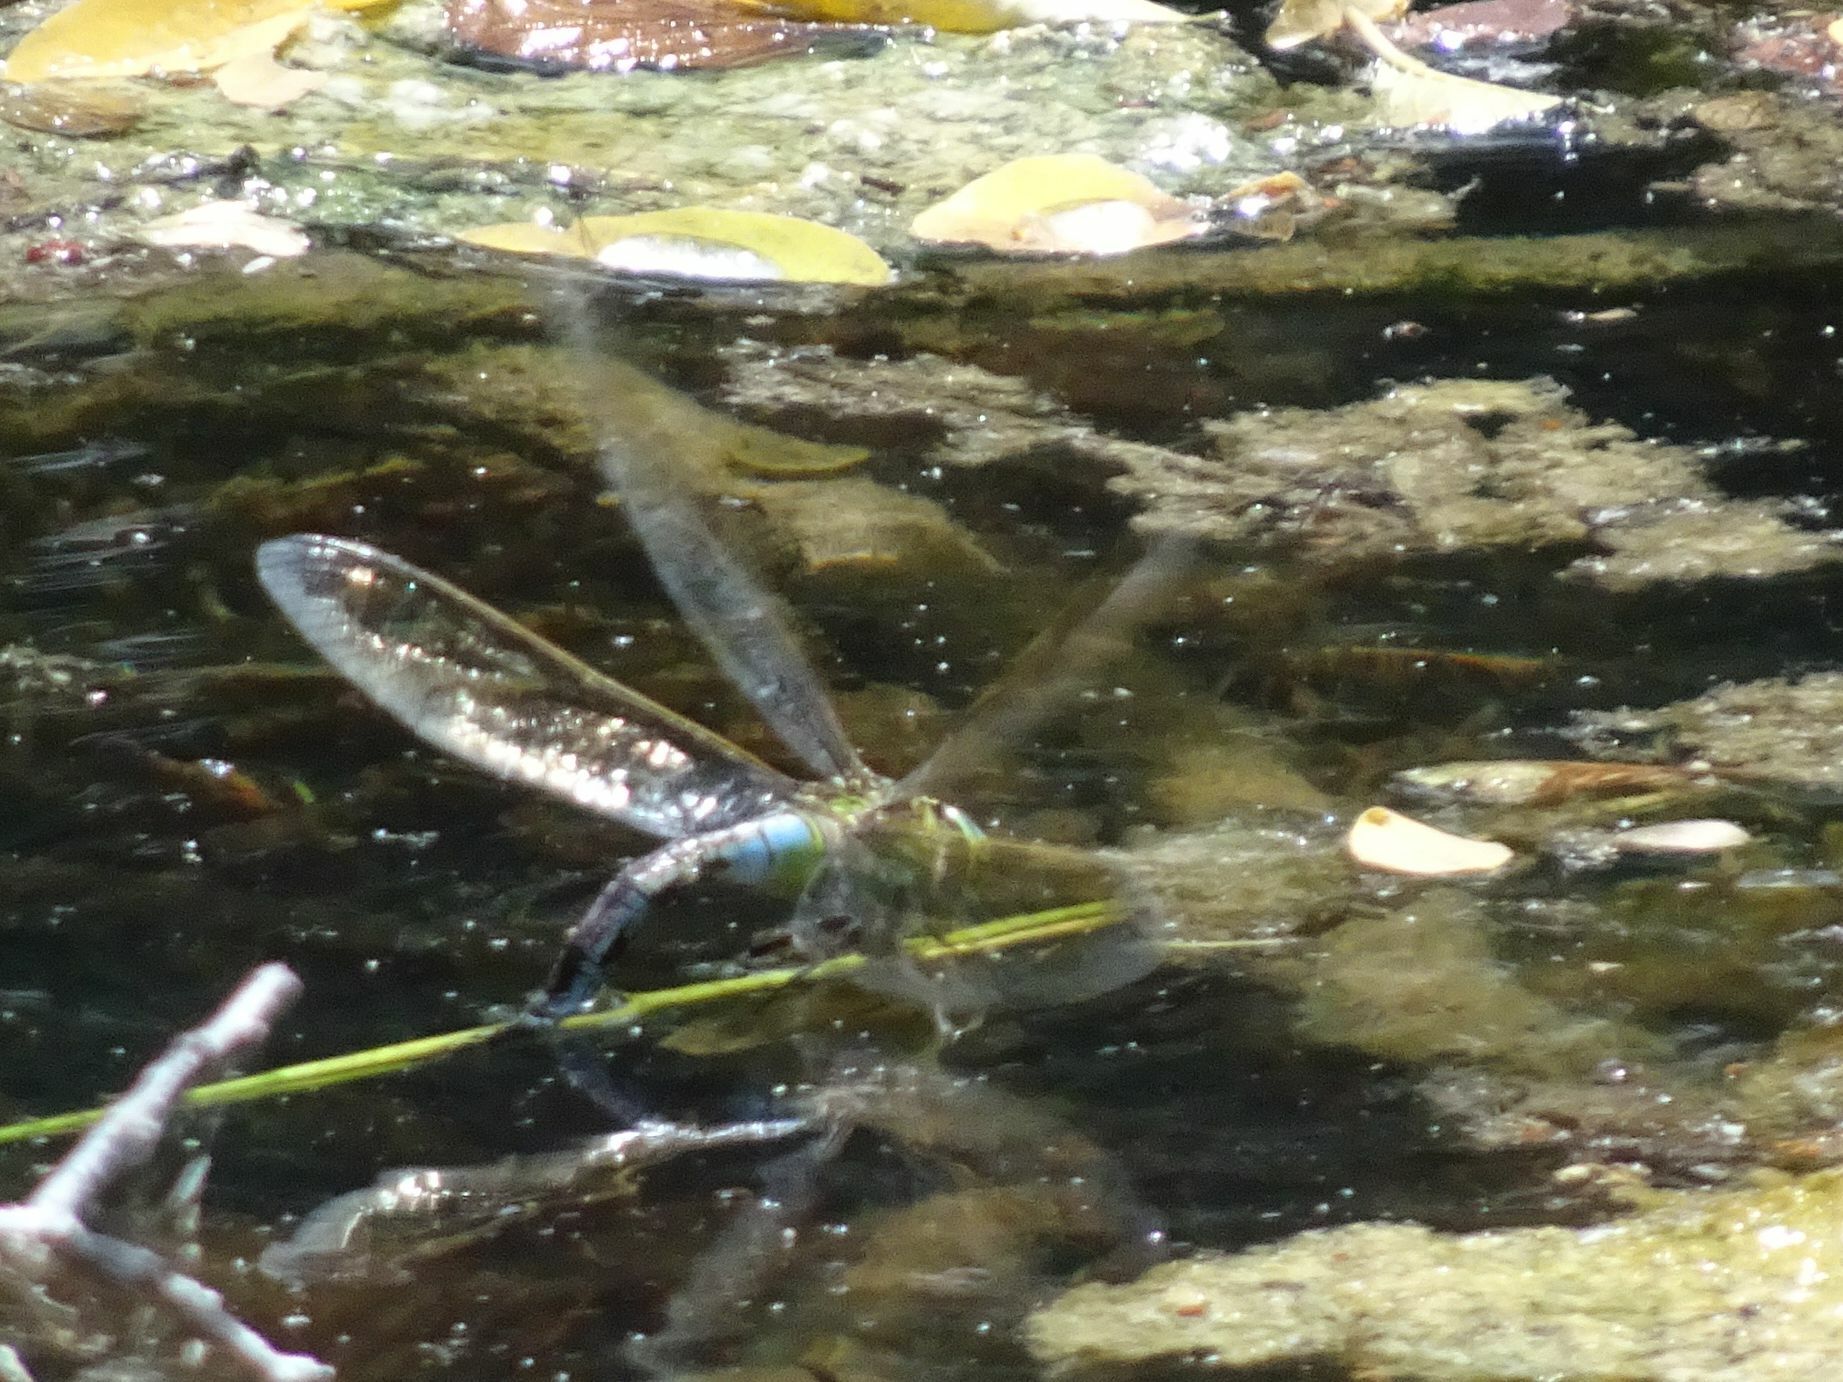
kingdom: Animalia
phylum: Arthropoda
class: Insecta
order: Odonata
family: Aeshnidae
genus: Anax
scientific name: Anax imperator
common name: Emperor dragonfly
